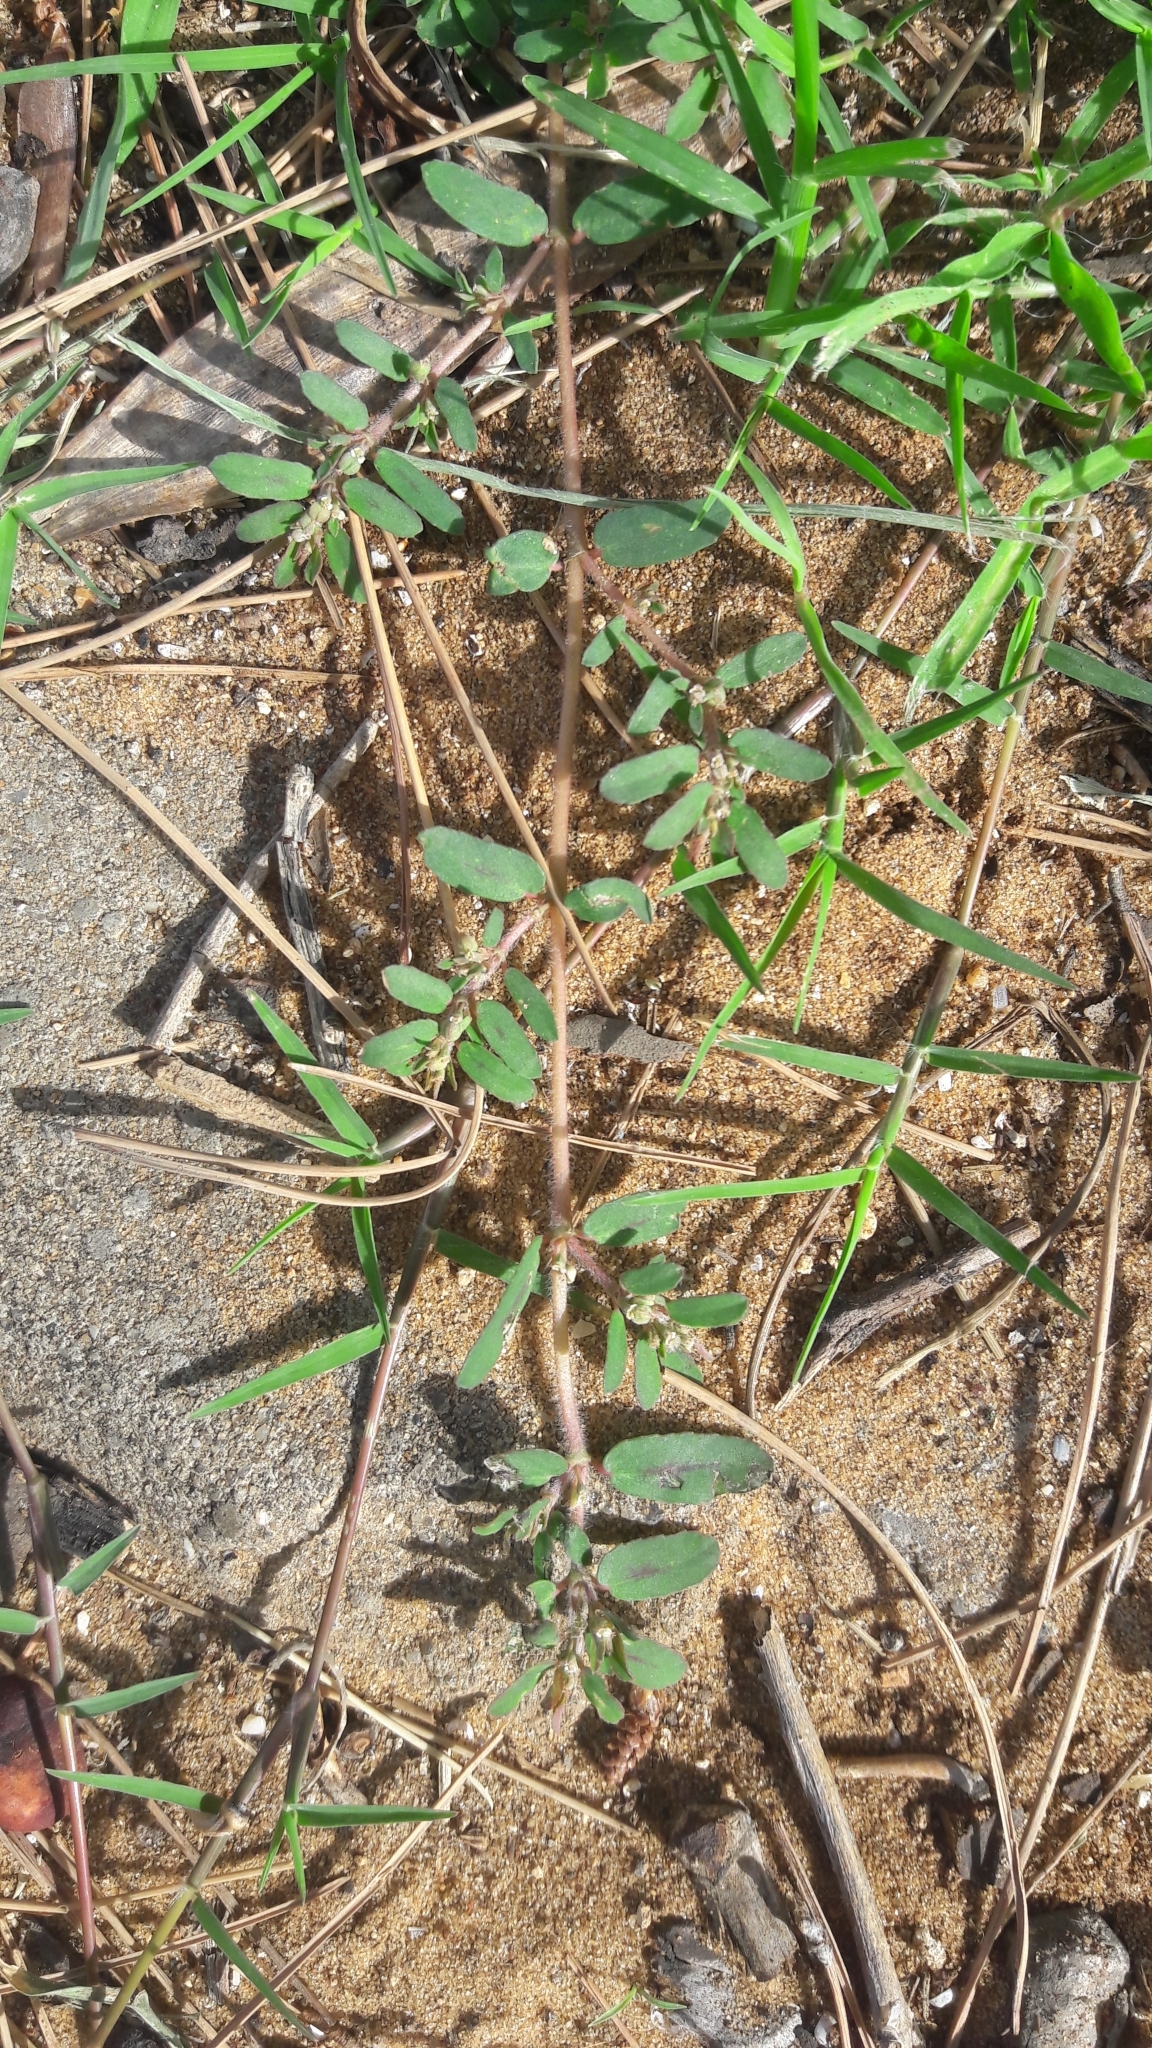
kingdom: Plantae
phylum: Tracheophyta
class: Magnoliopsida
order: Malpighiales
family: Euphorbiaceae
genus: Euphorbia
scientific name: Euphorbia maculata
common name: Spotted spurge
